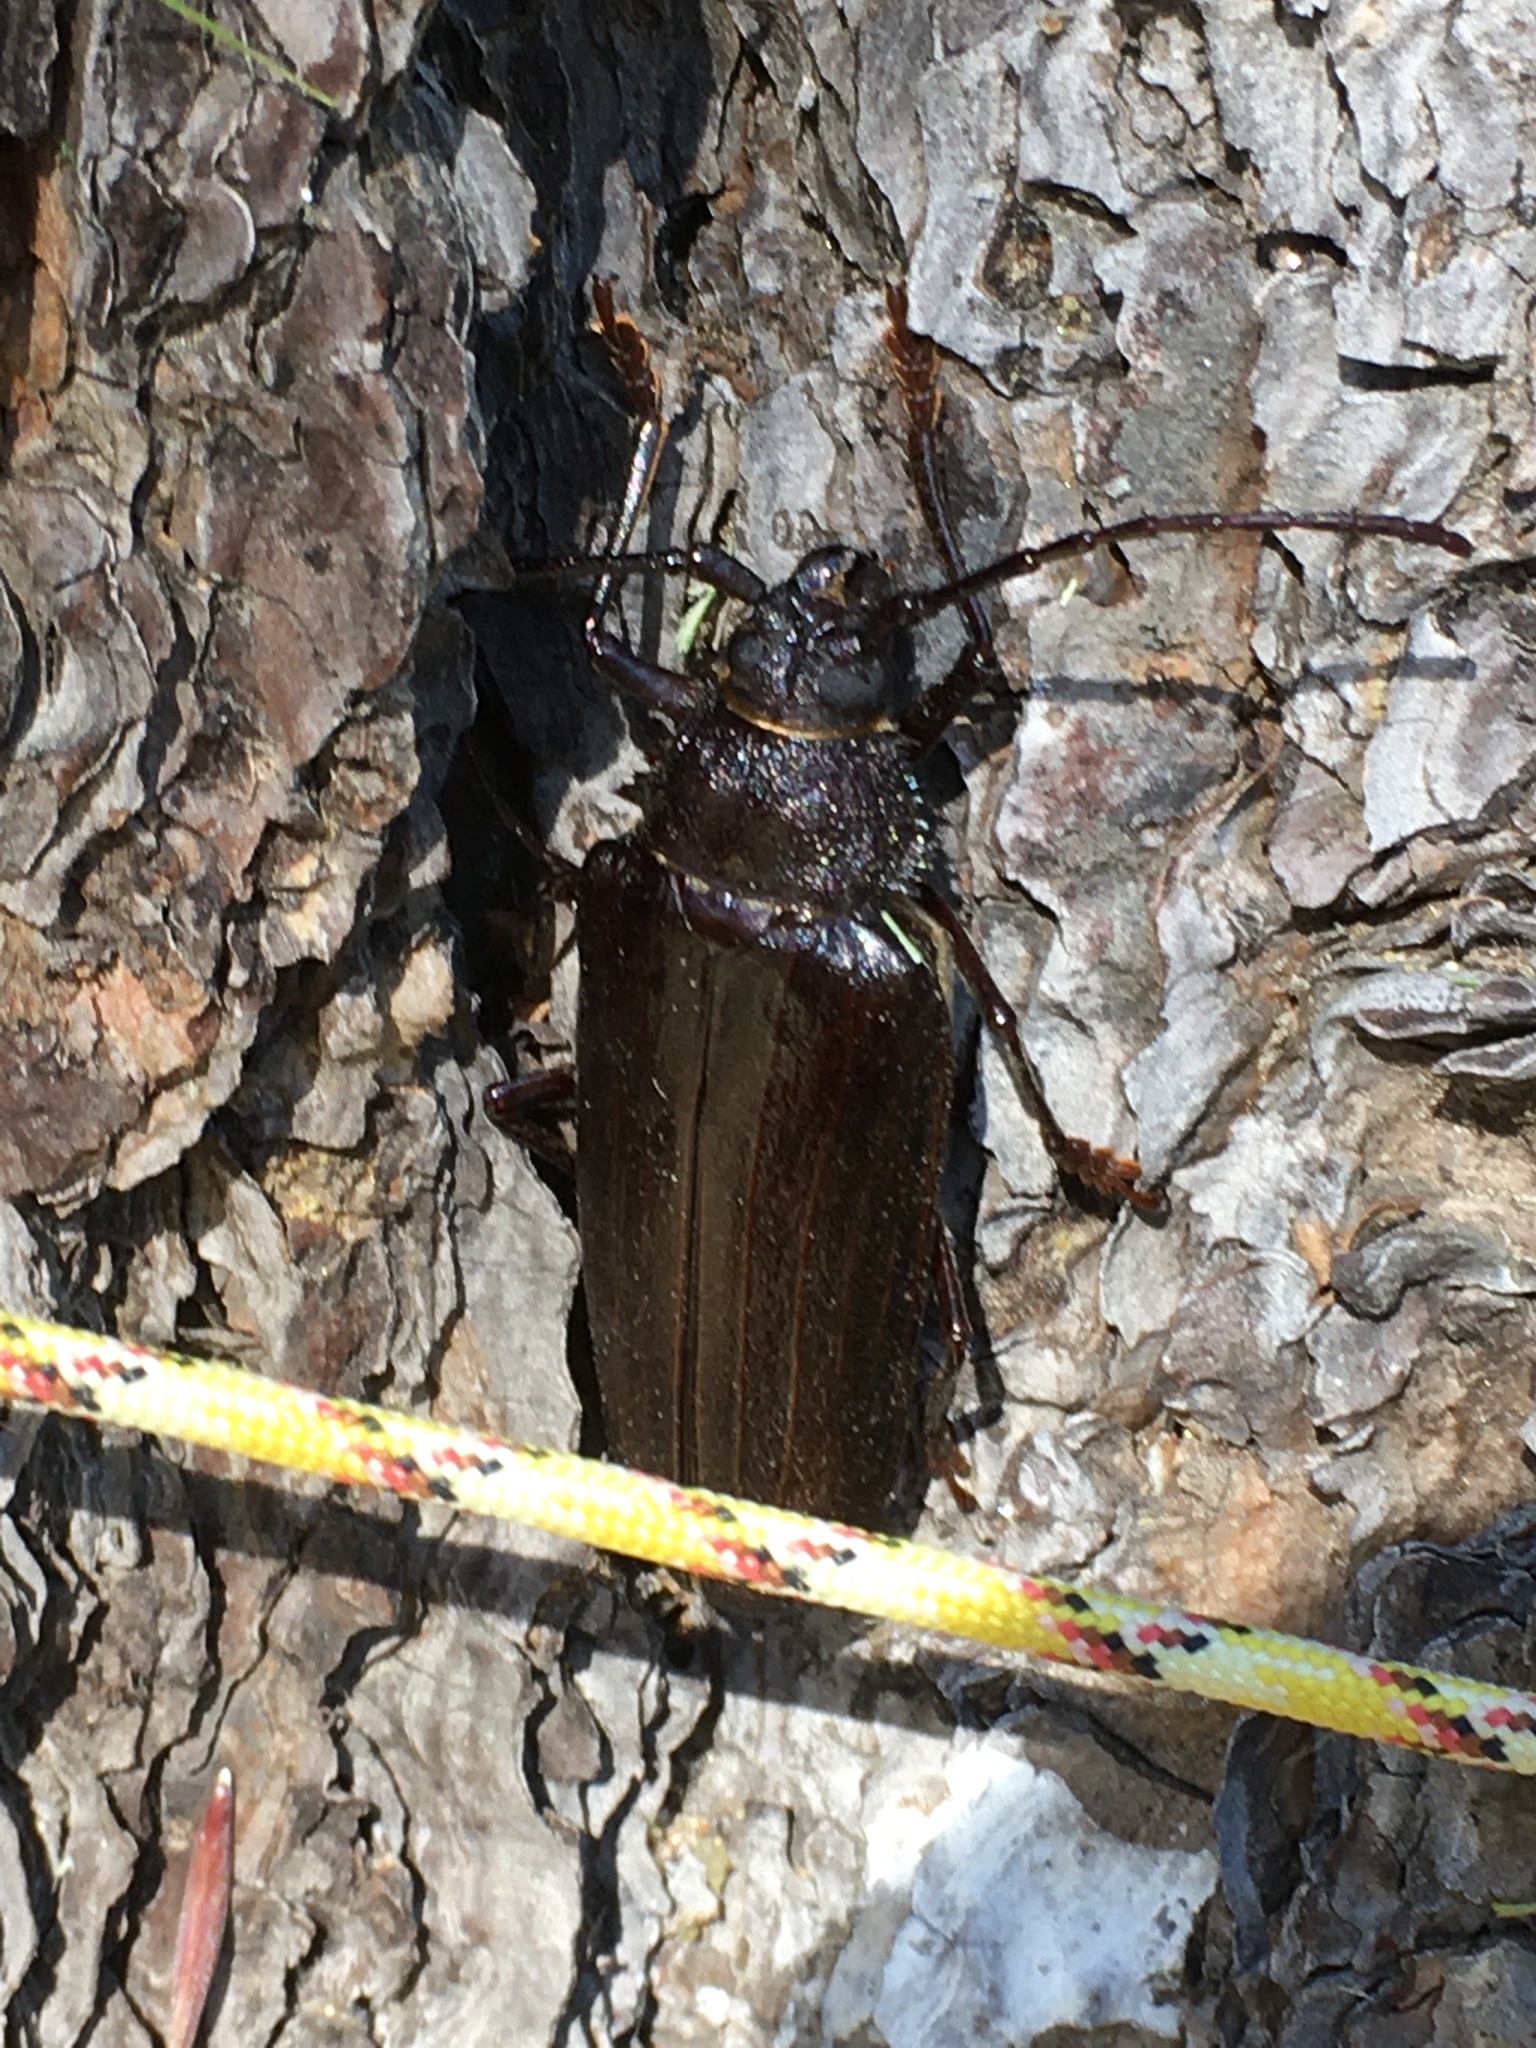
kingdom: Animalia
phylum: Arthropoda
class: Insecta
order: Coleoptera
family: Cerambycidae
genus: Trichocnemis
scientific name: Trichocnemis spiculatus
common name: Long-horned beetle
